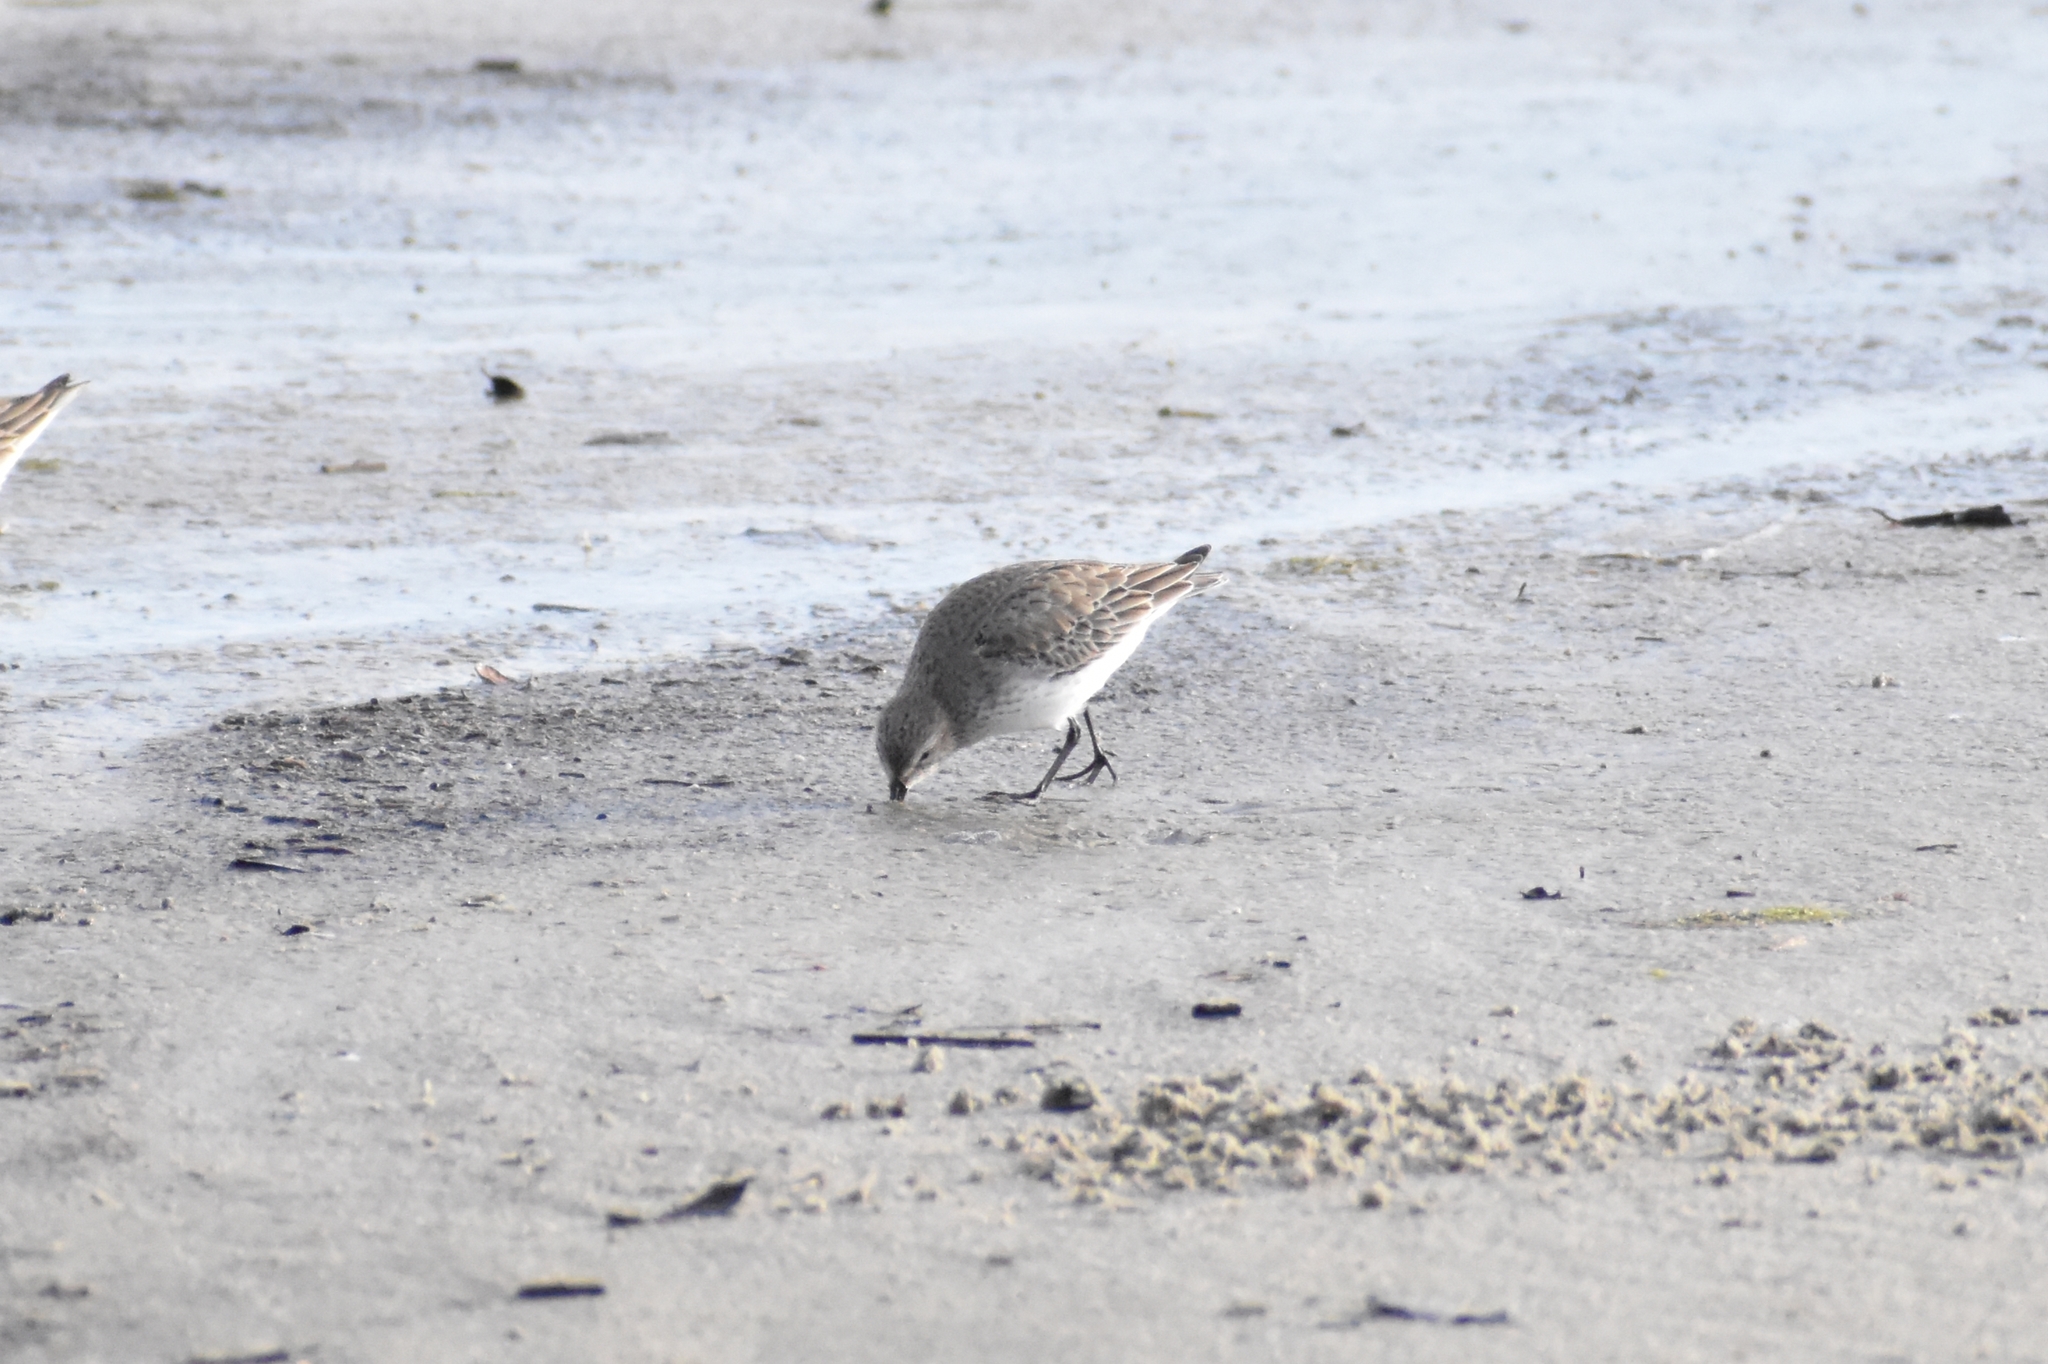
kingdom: Animalia
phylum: Chordata
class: Aves
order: Charadriiformes
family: Scolopacidae
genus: Calidris
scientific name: Calidris alpina
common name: Dunlin
